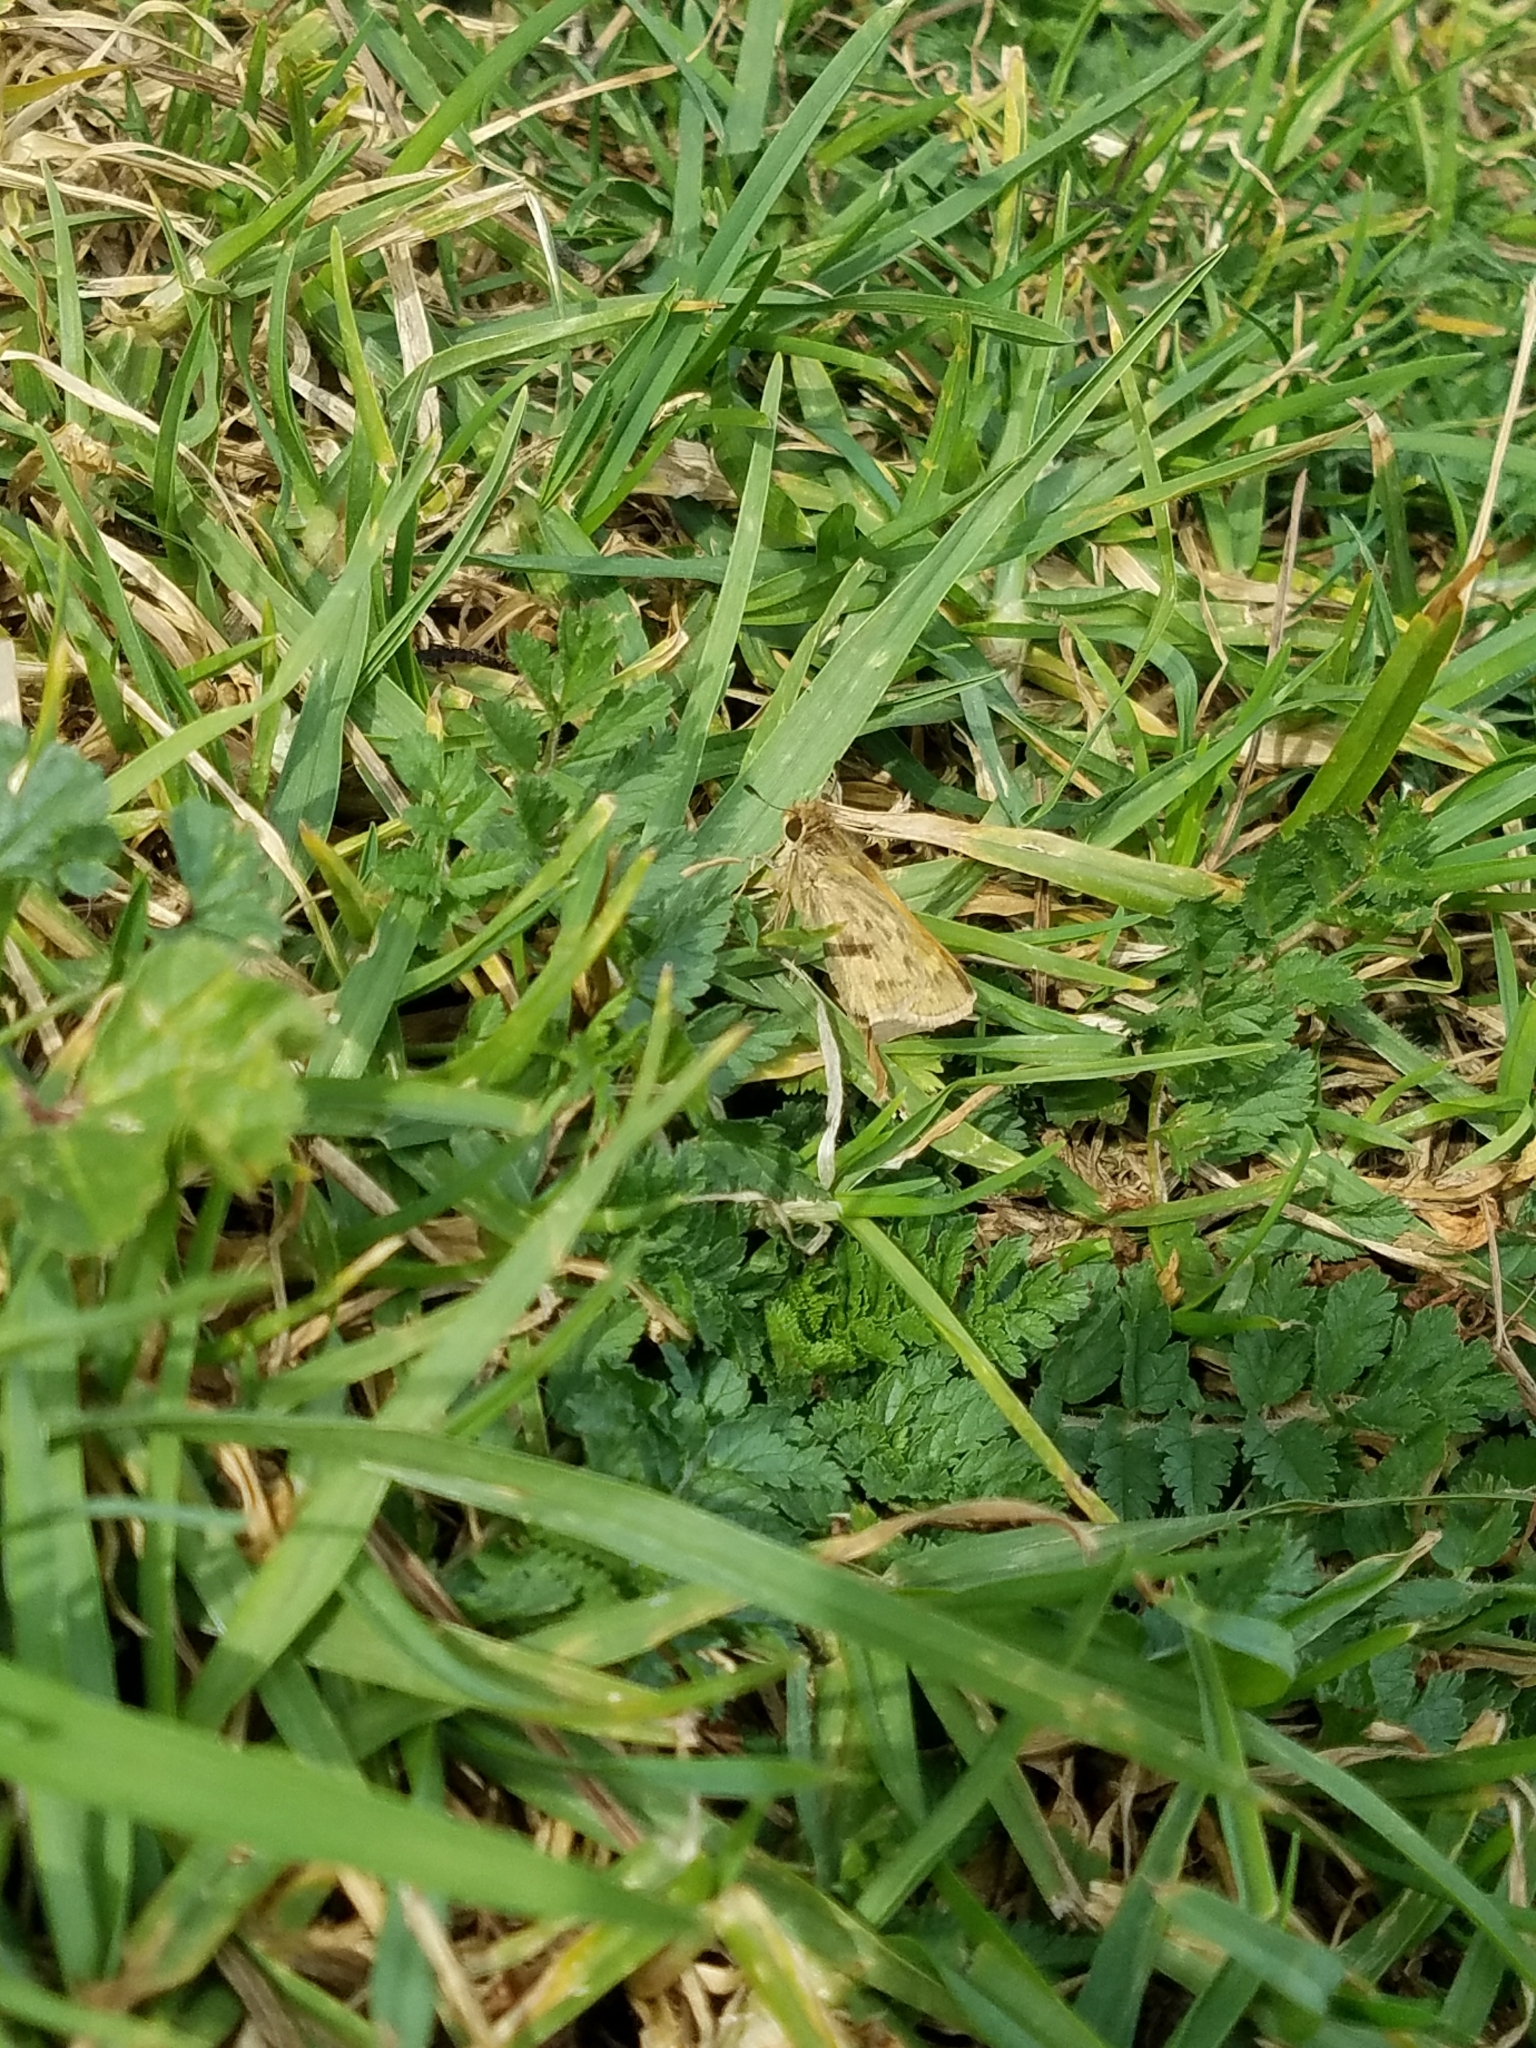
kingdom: Animalia
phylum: Arthropoda
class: Insecta
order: Lepidoptera
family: Hesperiidae
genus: Hylephila
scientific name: Hylephila phyleus
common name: Fiery skipper
